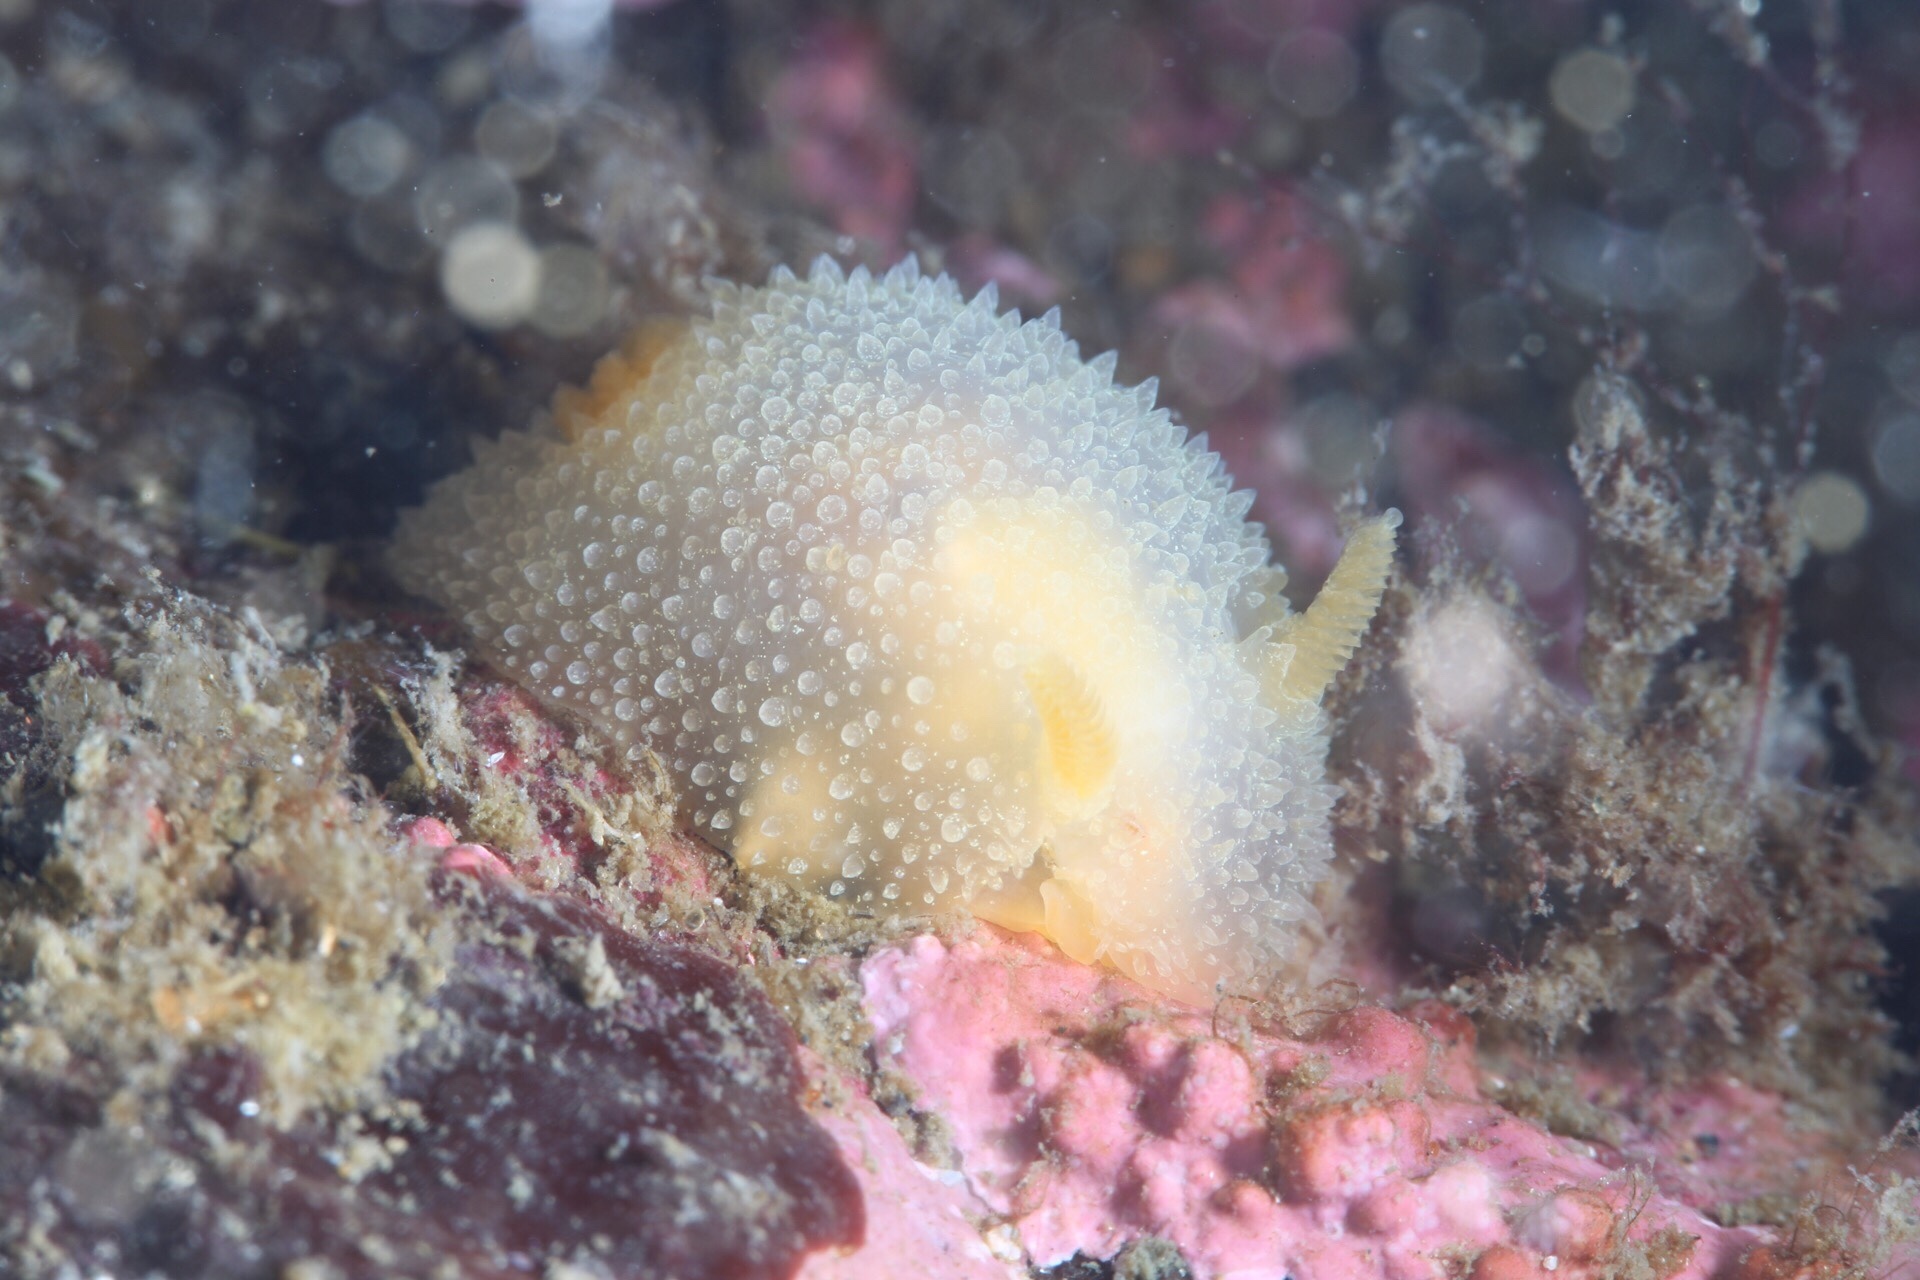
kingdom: Animalia
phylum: Mollusca
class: Gastropoda
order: Nudibranchia
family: Onchidorididae
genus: Acanthodoris
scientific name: Acanthodoris pilosa
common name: Hairy spiny doris
